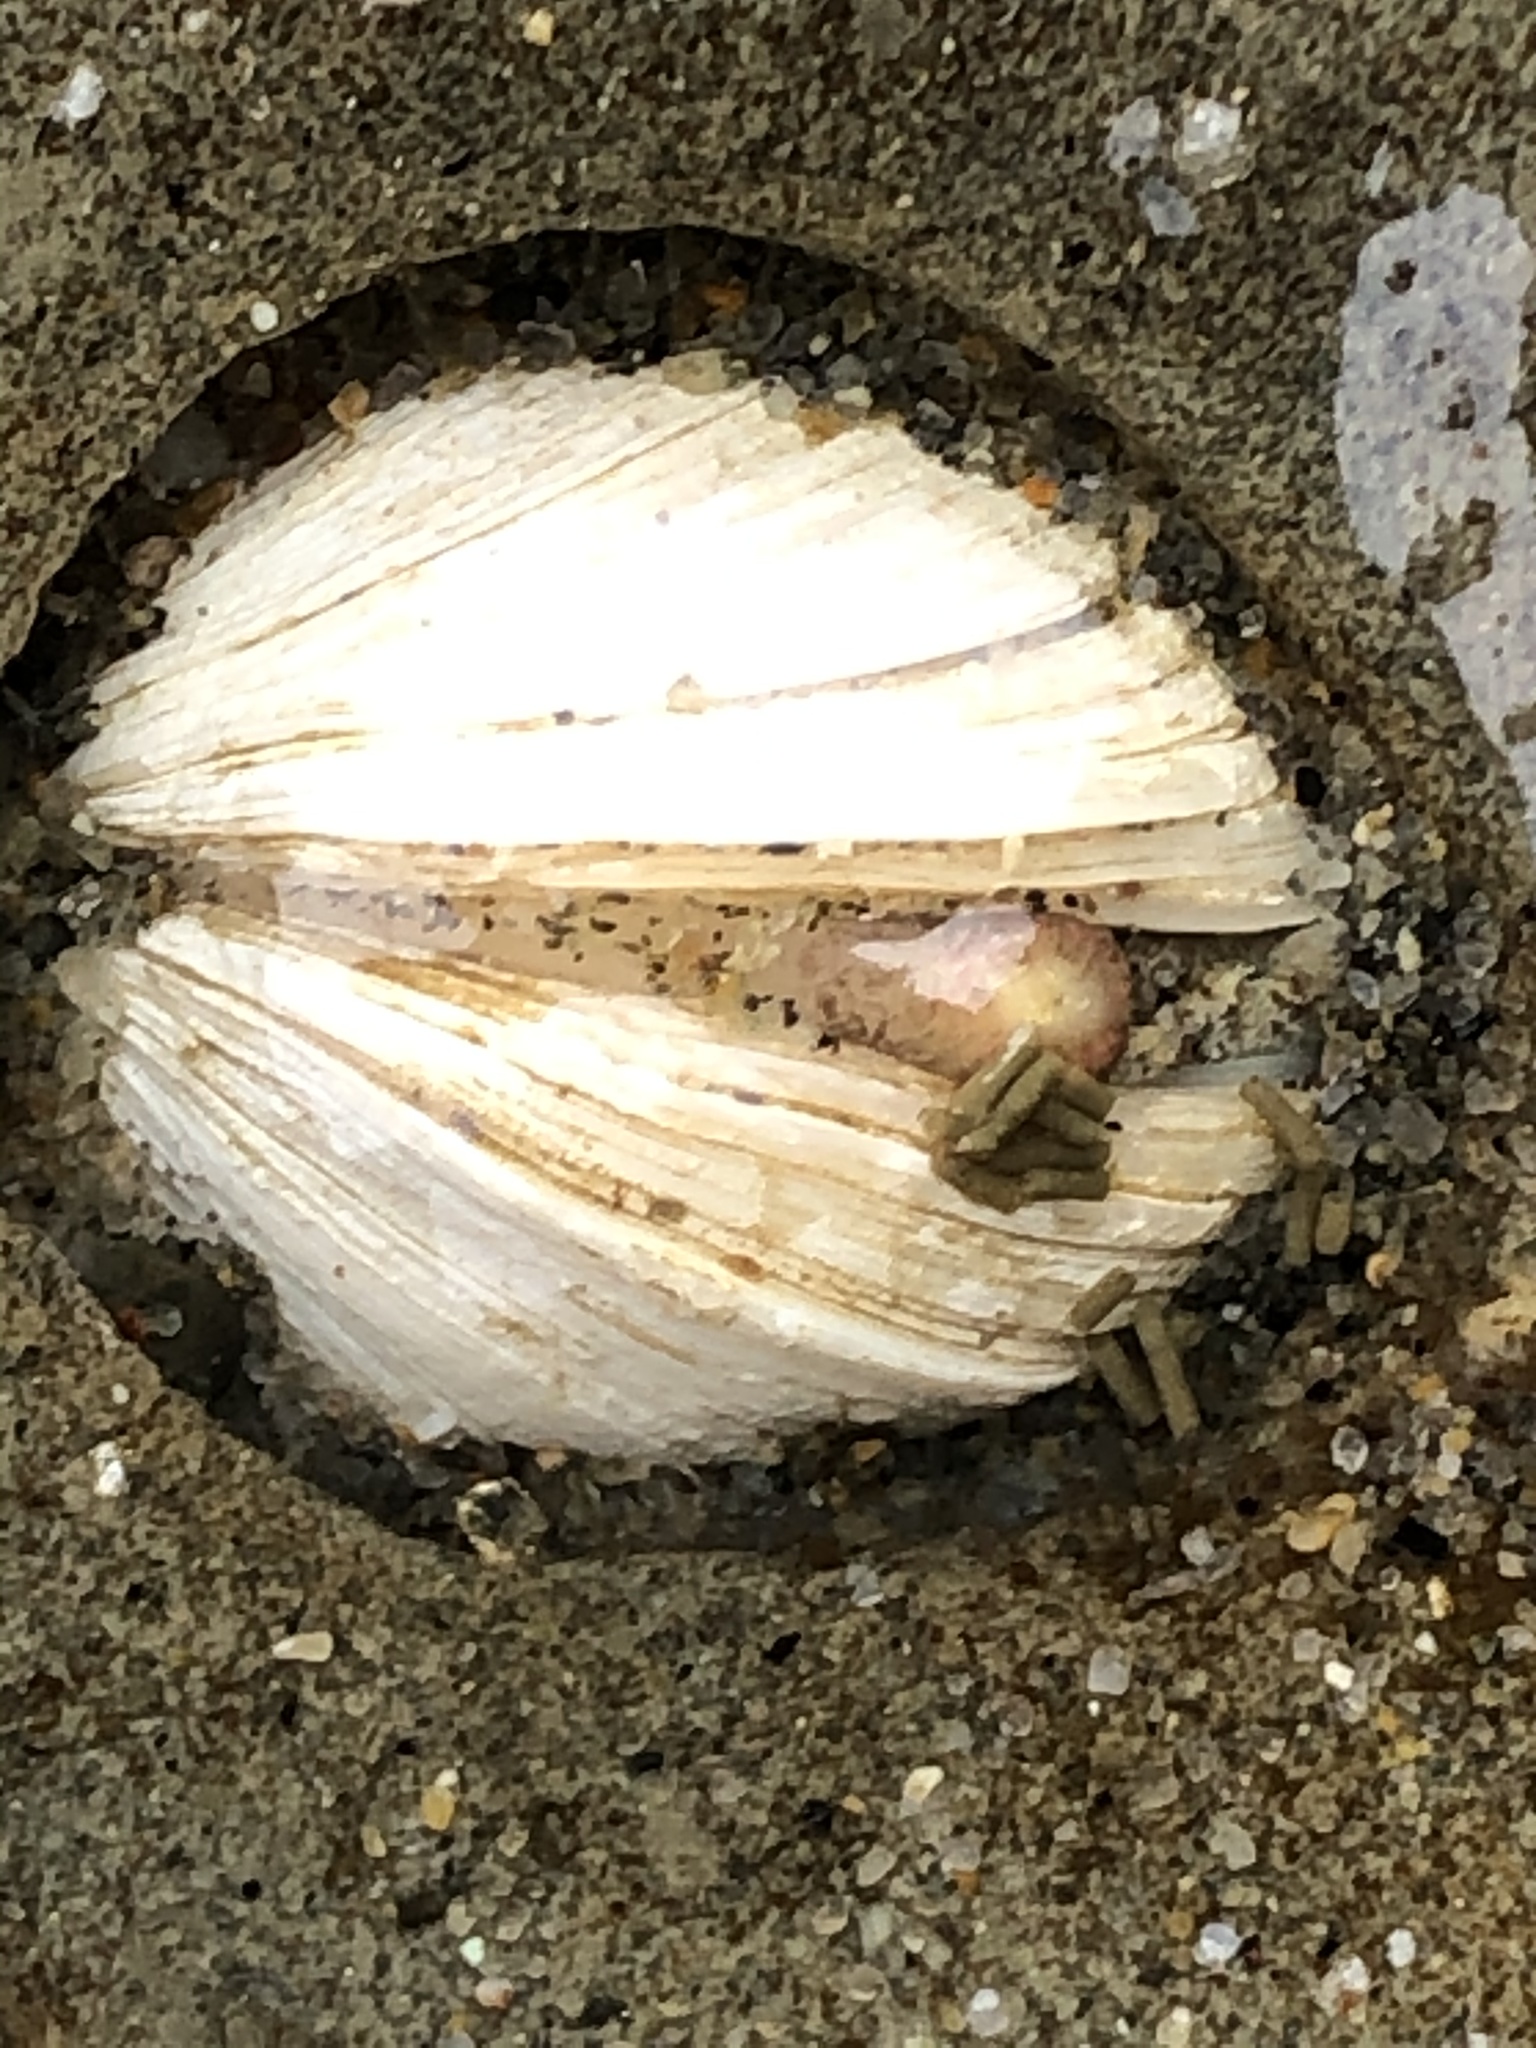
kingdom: Animalia
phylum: Mollusca
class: Bivalvia
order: Venerida
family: Veneridae
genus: Petricola
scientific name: Petricola carditoides
